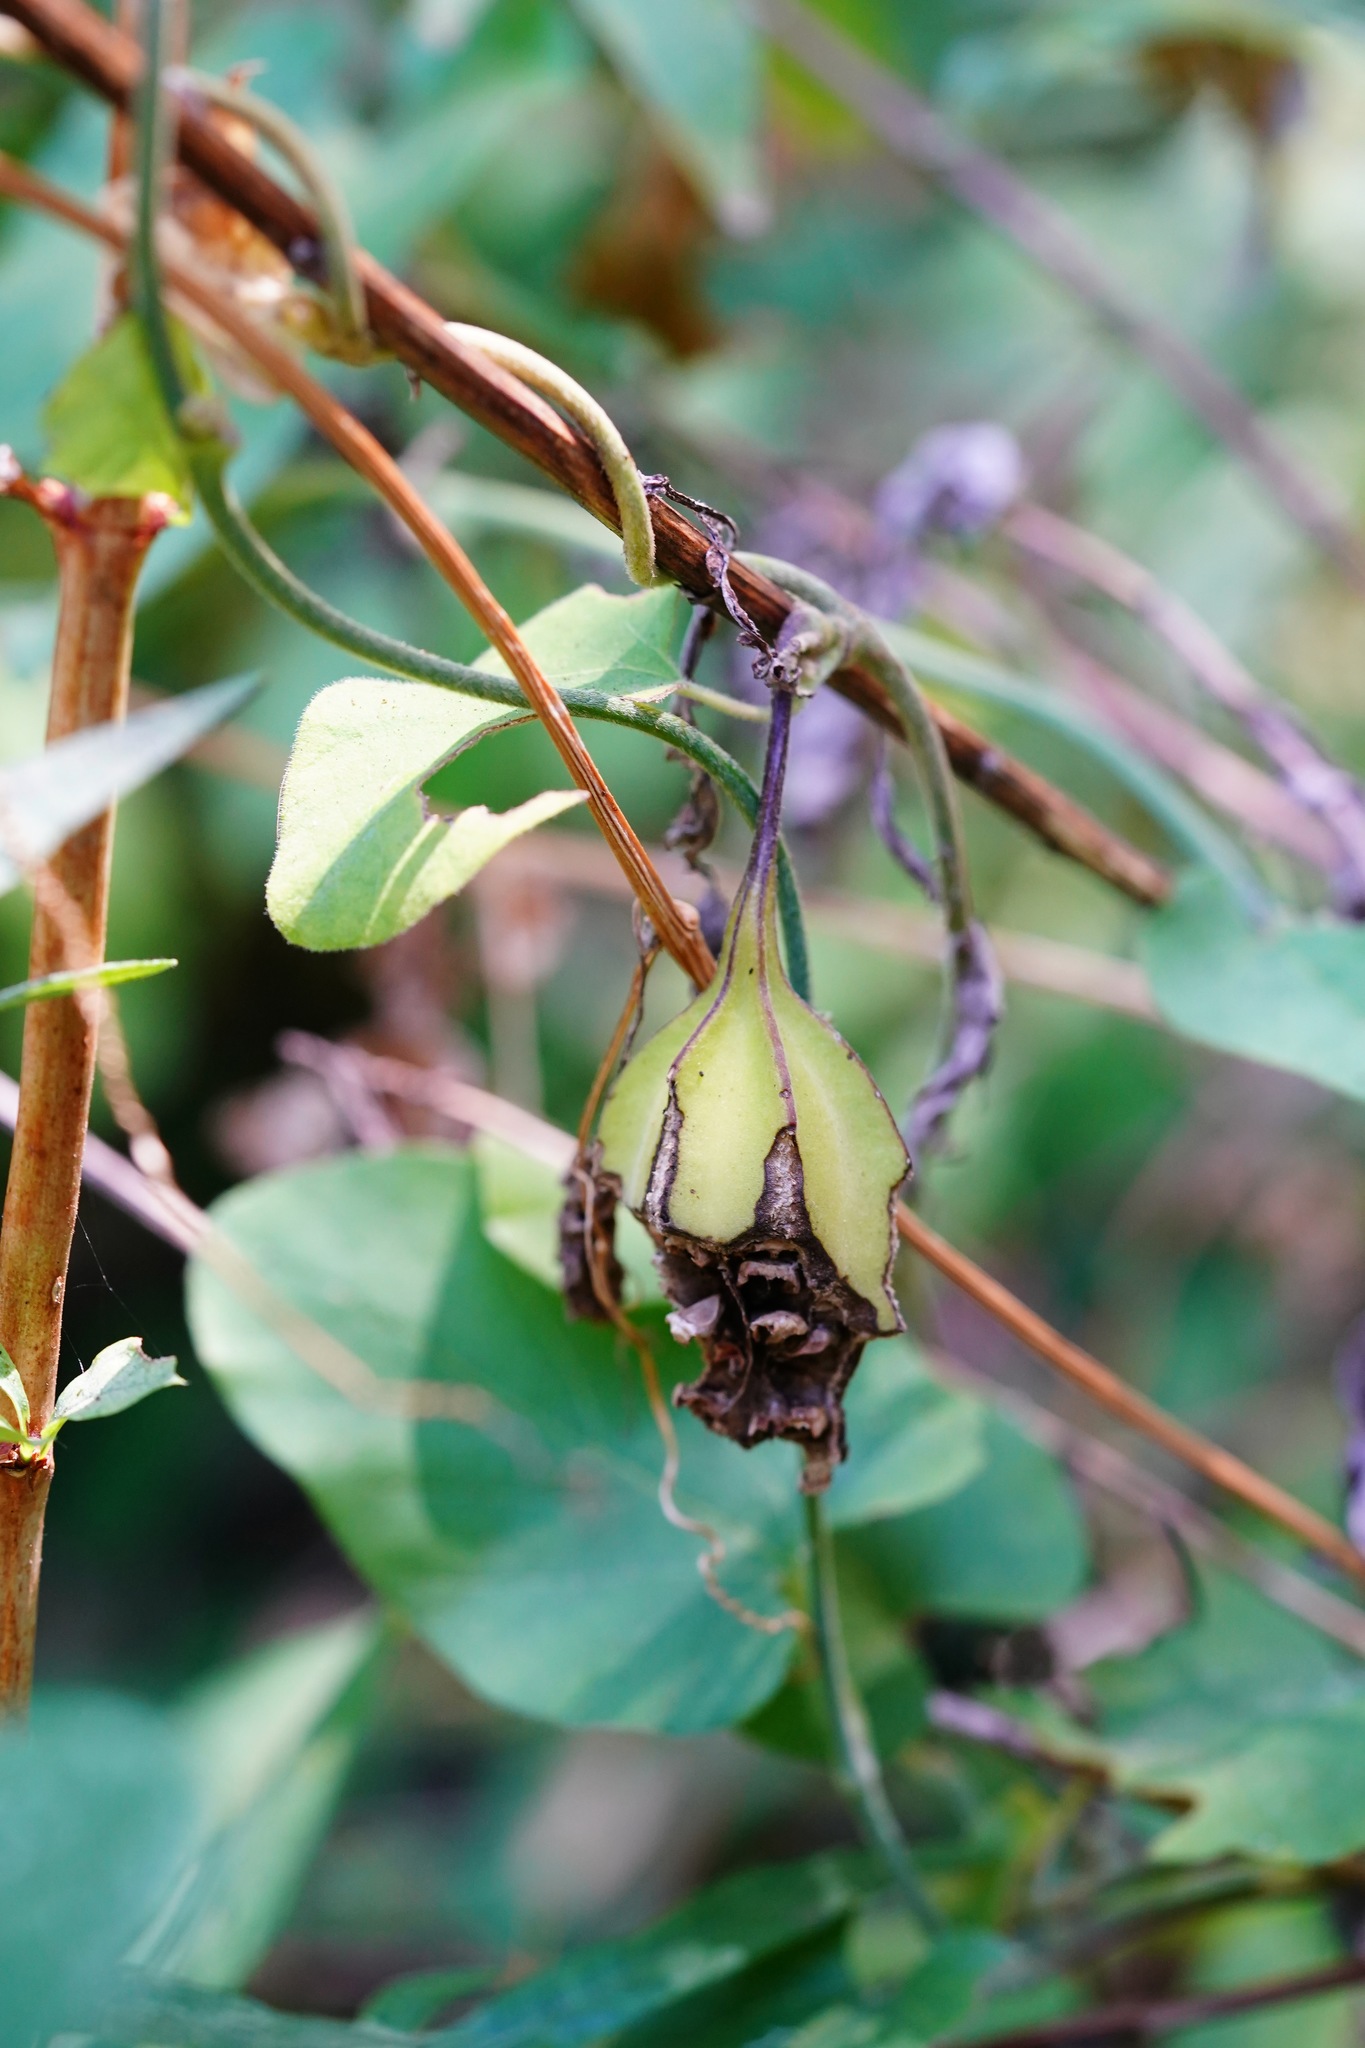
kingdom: Plantae
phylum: Tracheophyta
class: Magnoliopsida
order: Piperales
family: Aristolochiaceae
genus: Isotrema
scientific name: Isotrema californicum
